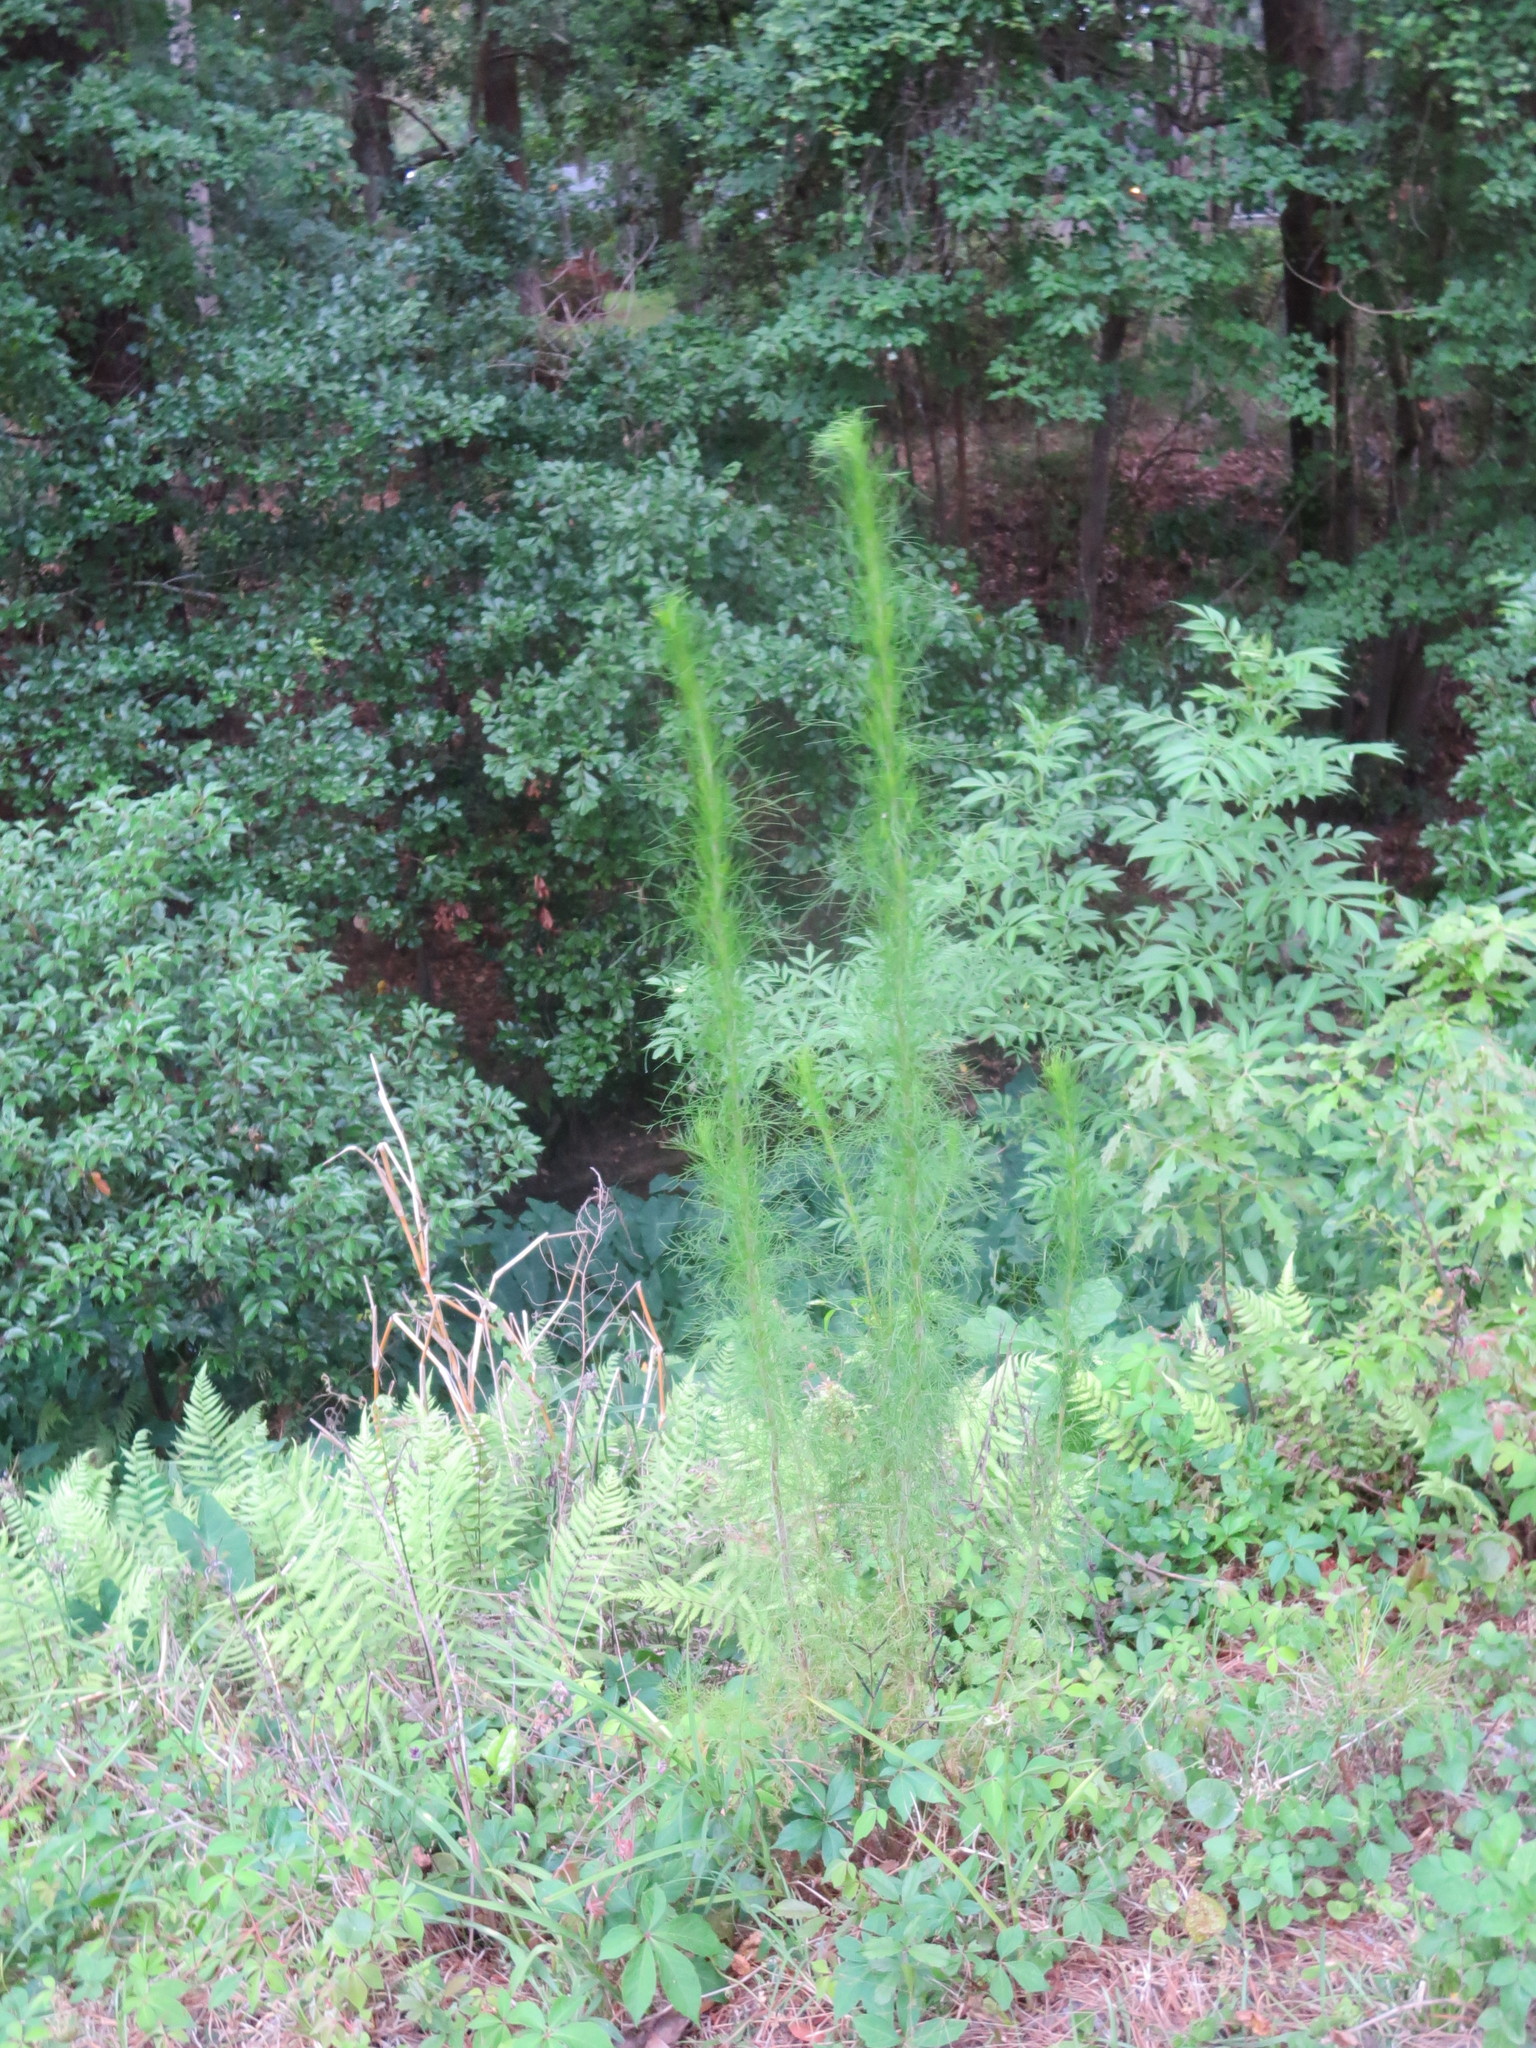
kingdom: Plantae
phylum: Tracheophyta
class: Magnoliopsida
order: Asterales
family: Asteraceae
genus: Eupatorium
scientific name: Eupatorium capillifolium
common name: Dog-fennel
